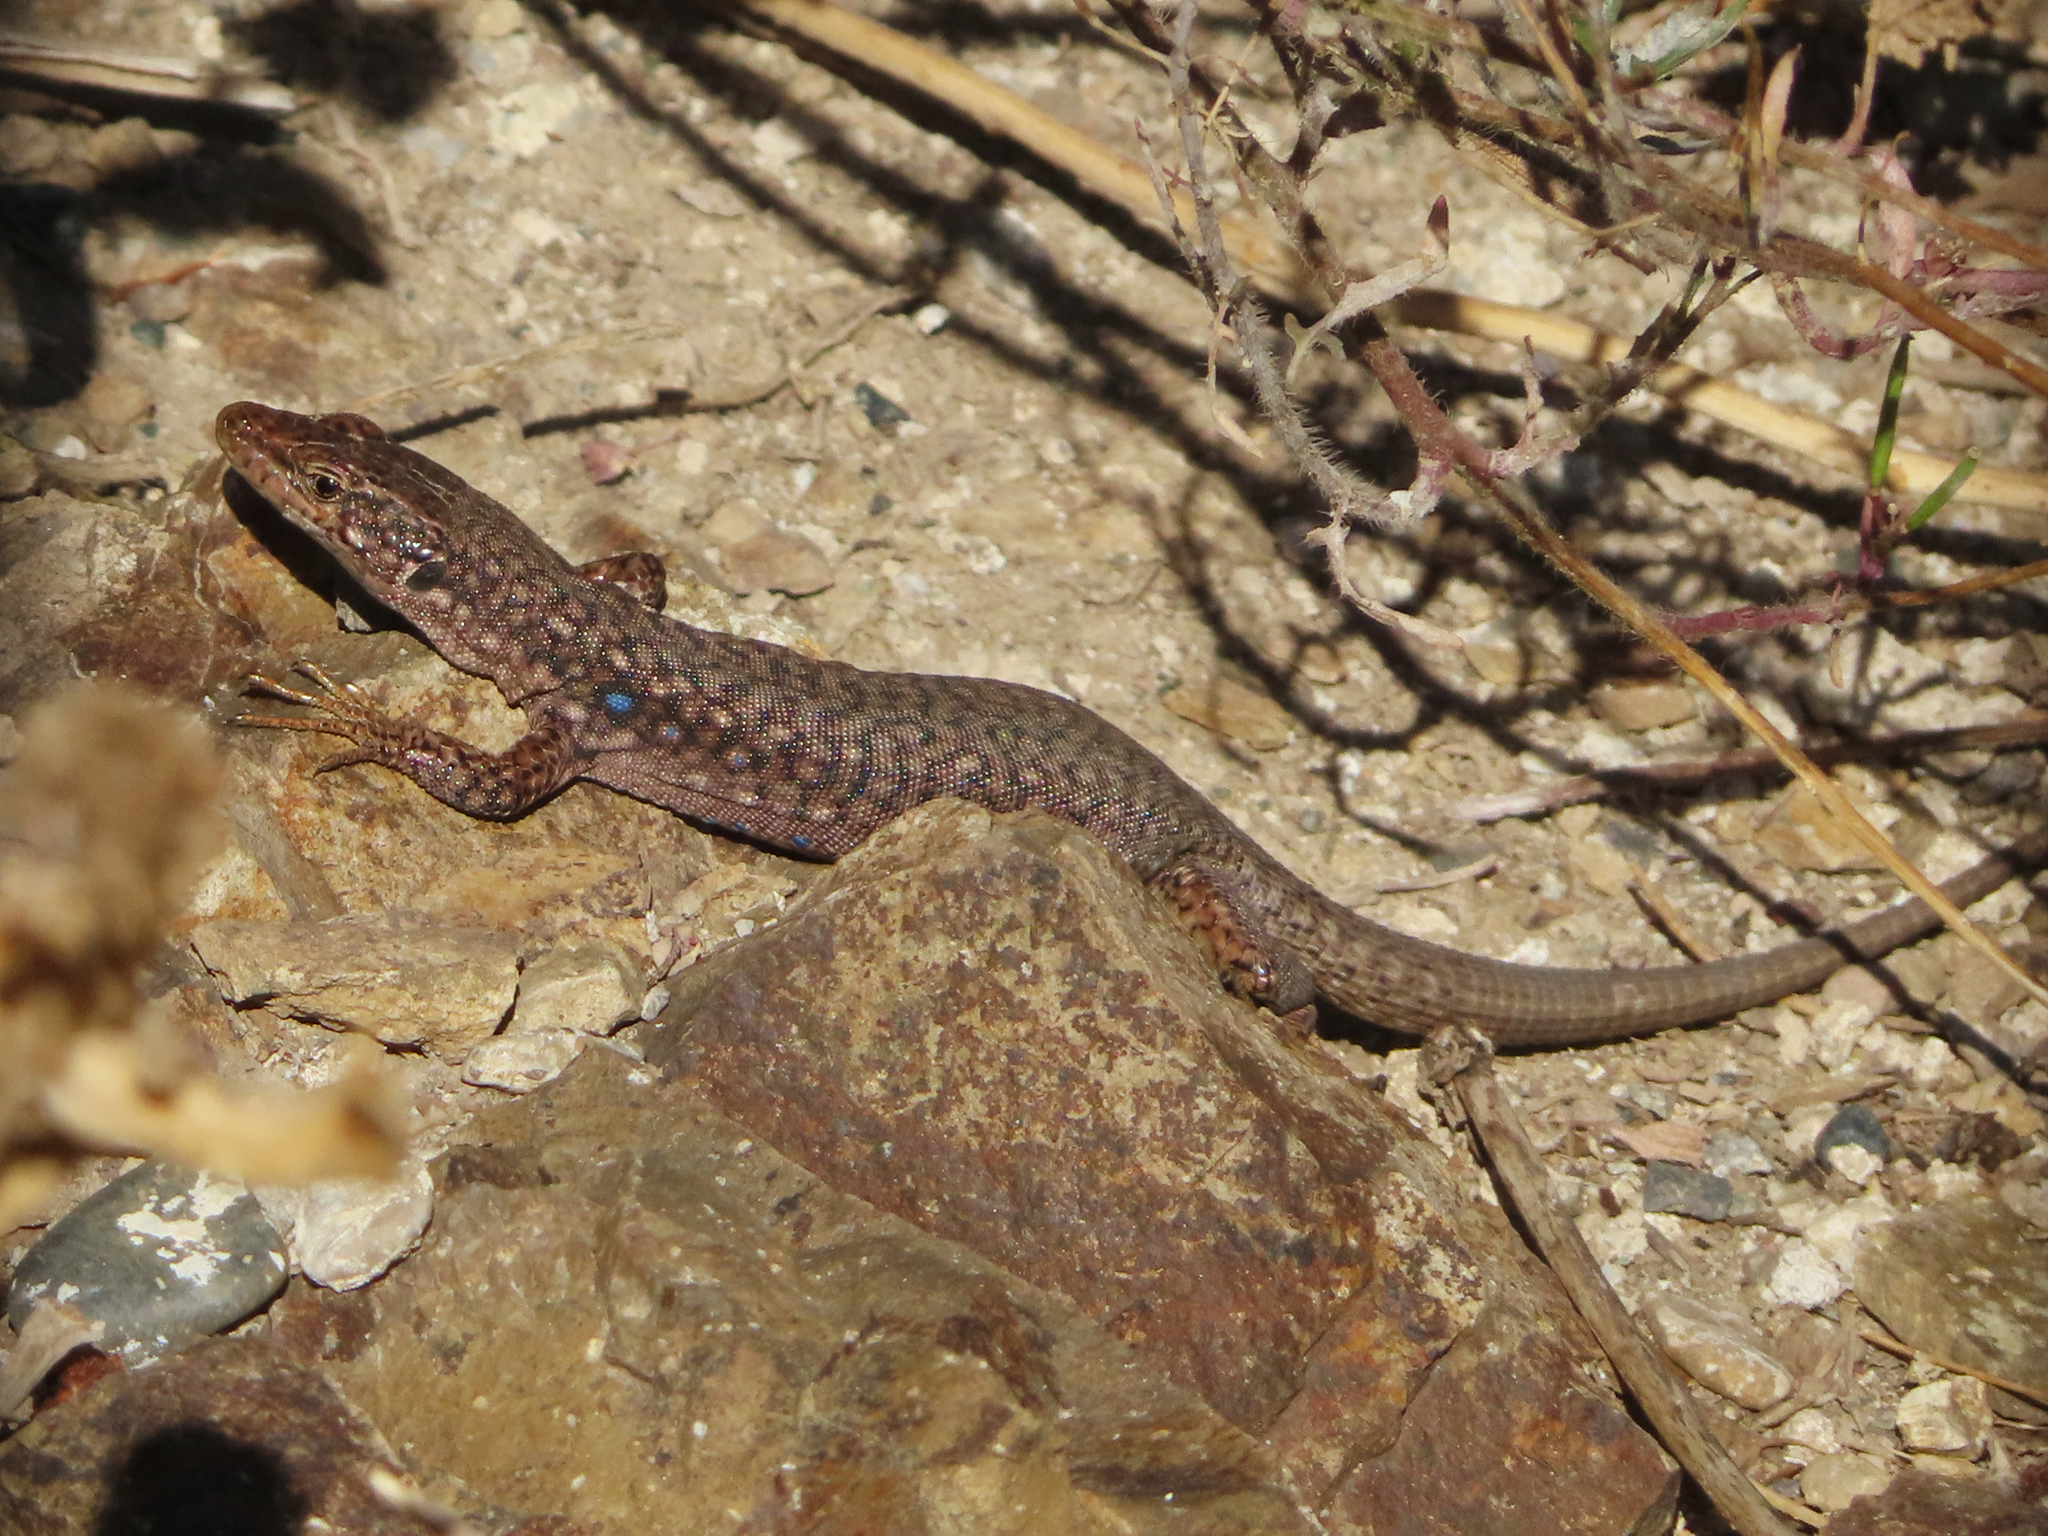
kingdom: Animalia
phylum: Chordata
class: Squamata
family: Lacertidae
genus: Darevskia
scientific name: Darevskia unisexualis
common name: Unisexual lizard
